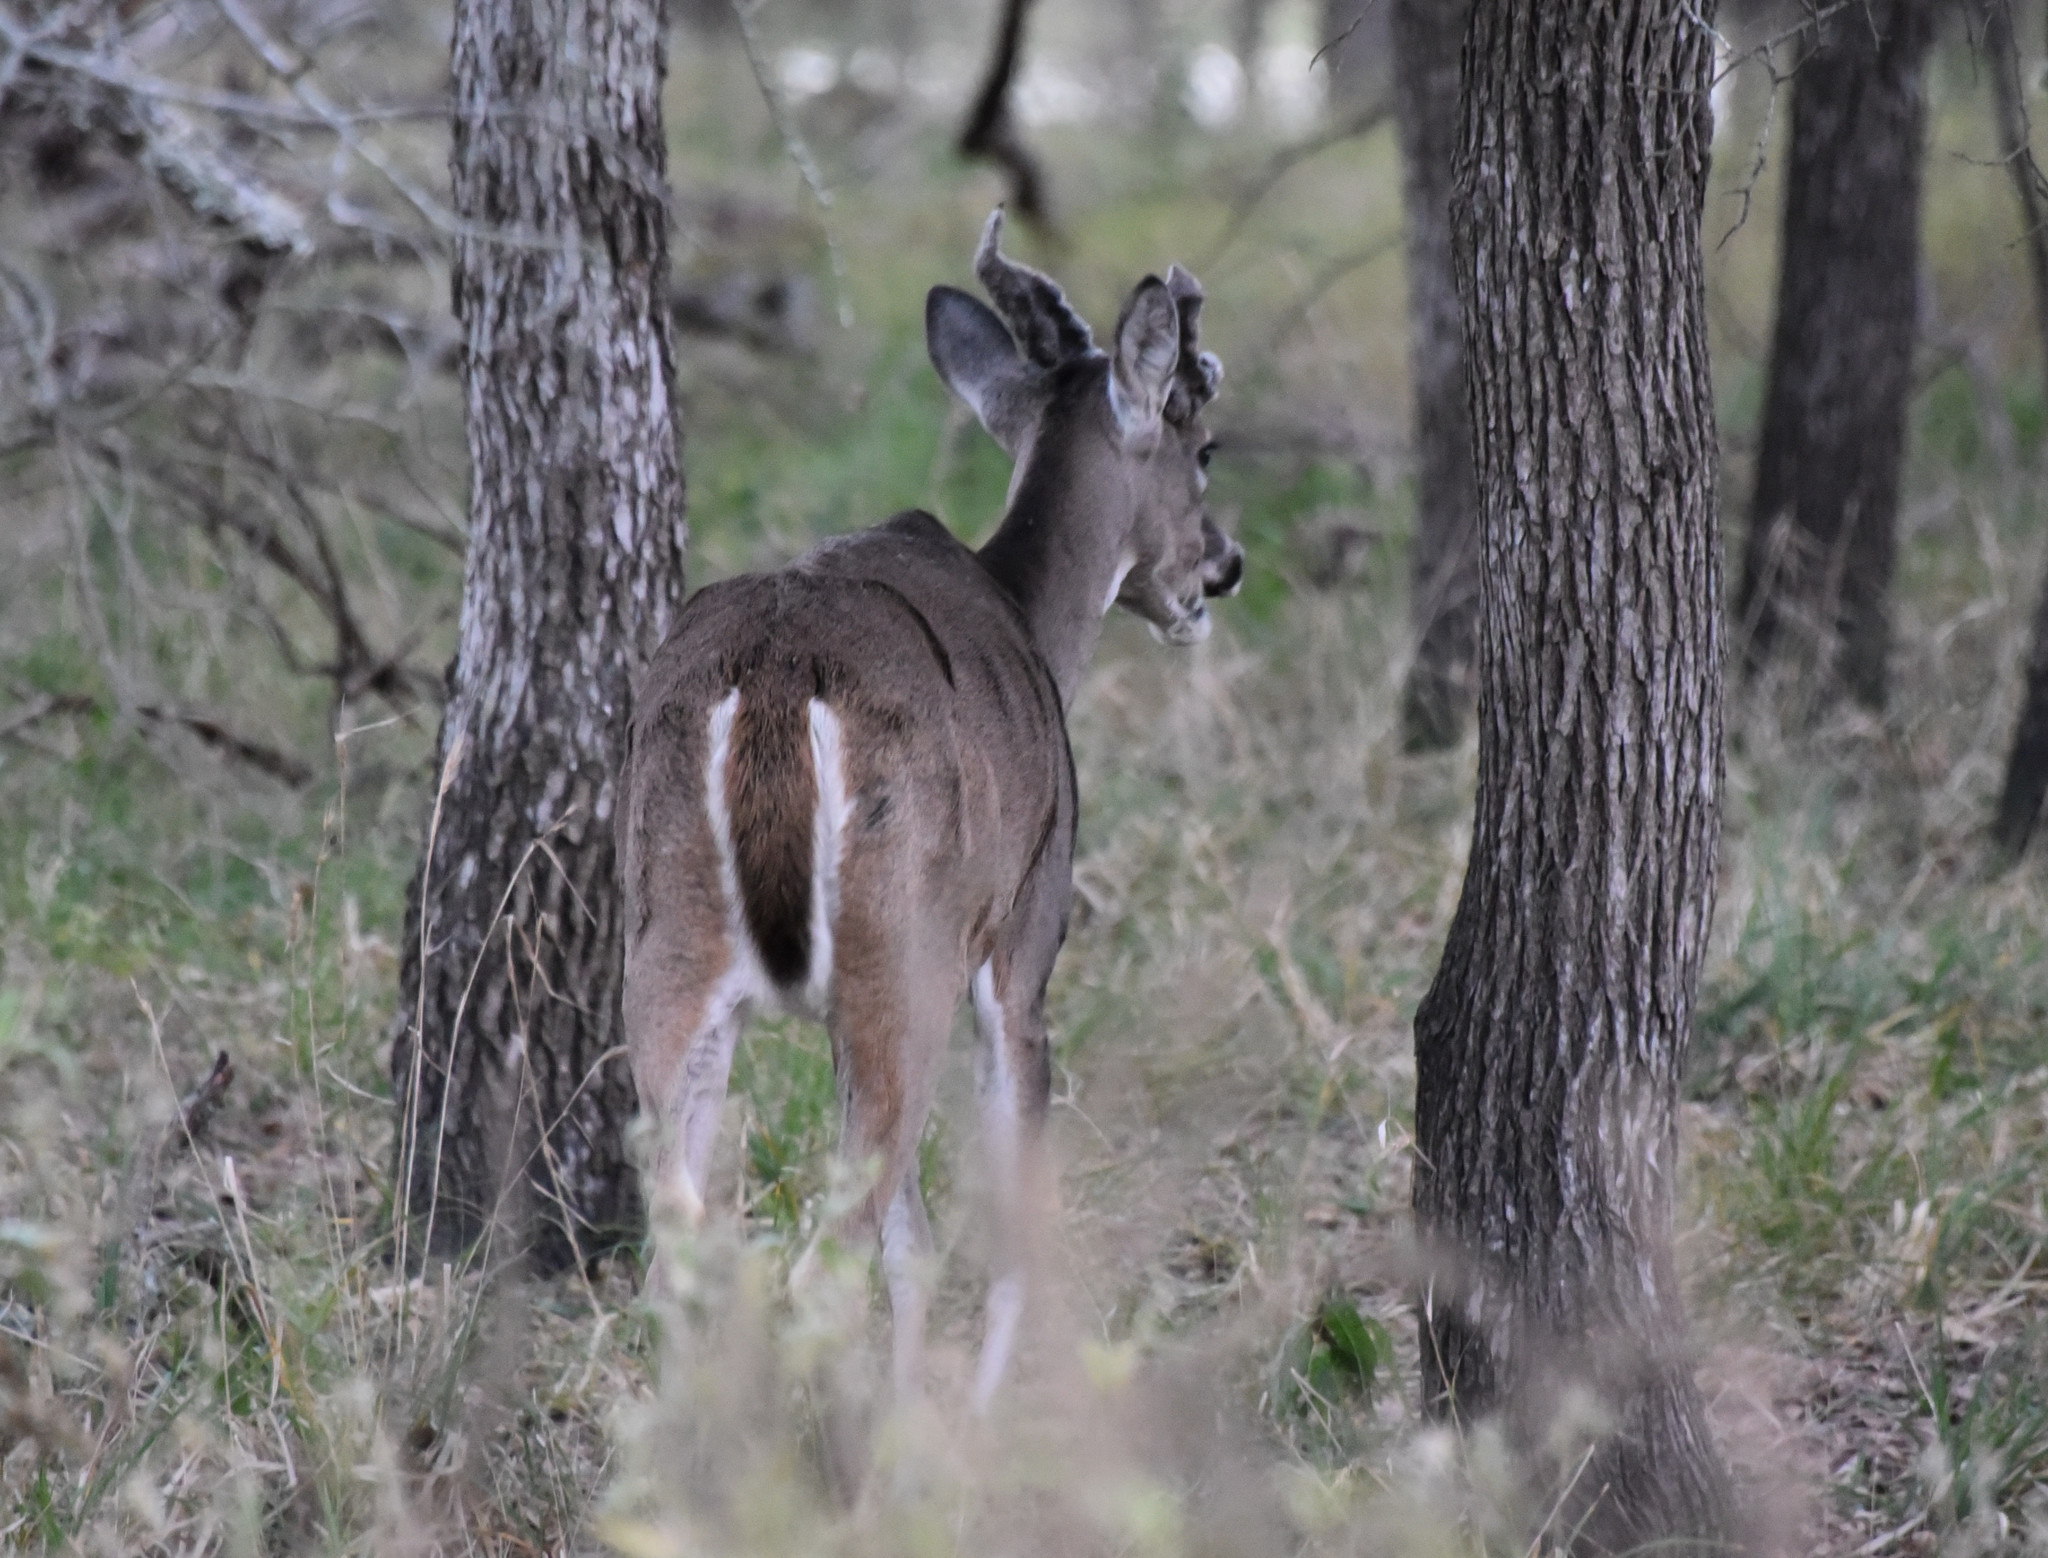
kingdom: Animalia
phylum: Chordata
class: Mammalia
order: Artiodactyla
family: Cervidae
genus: Odocoileus
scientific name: Odocoileus virginianus
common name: White-tailed deer
